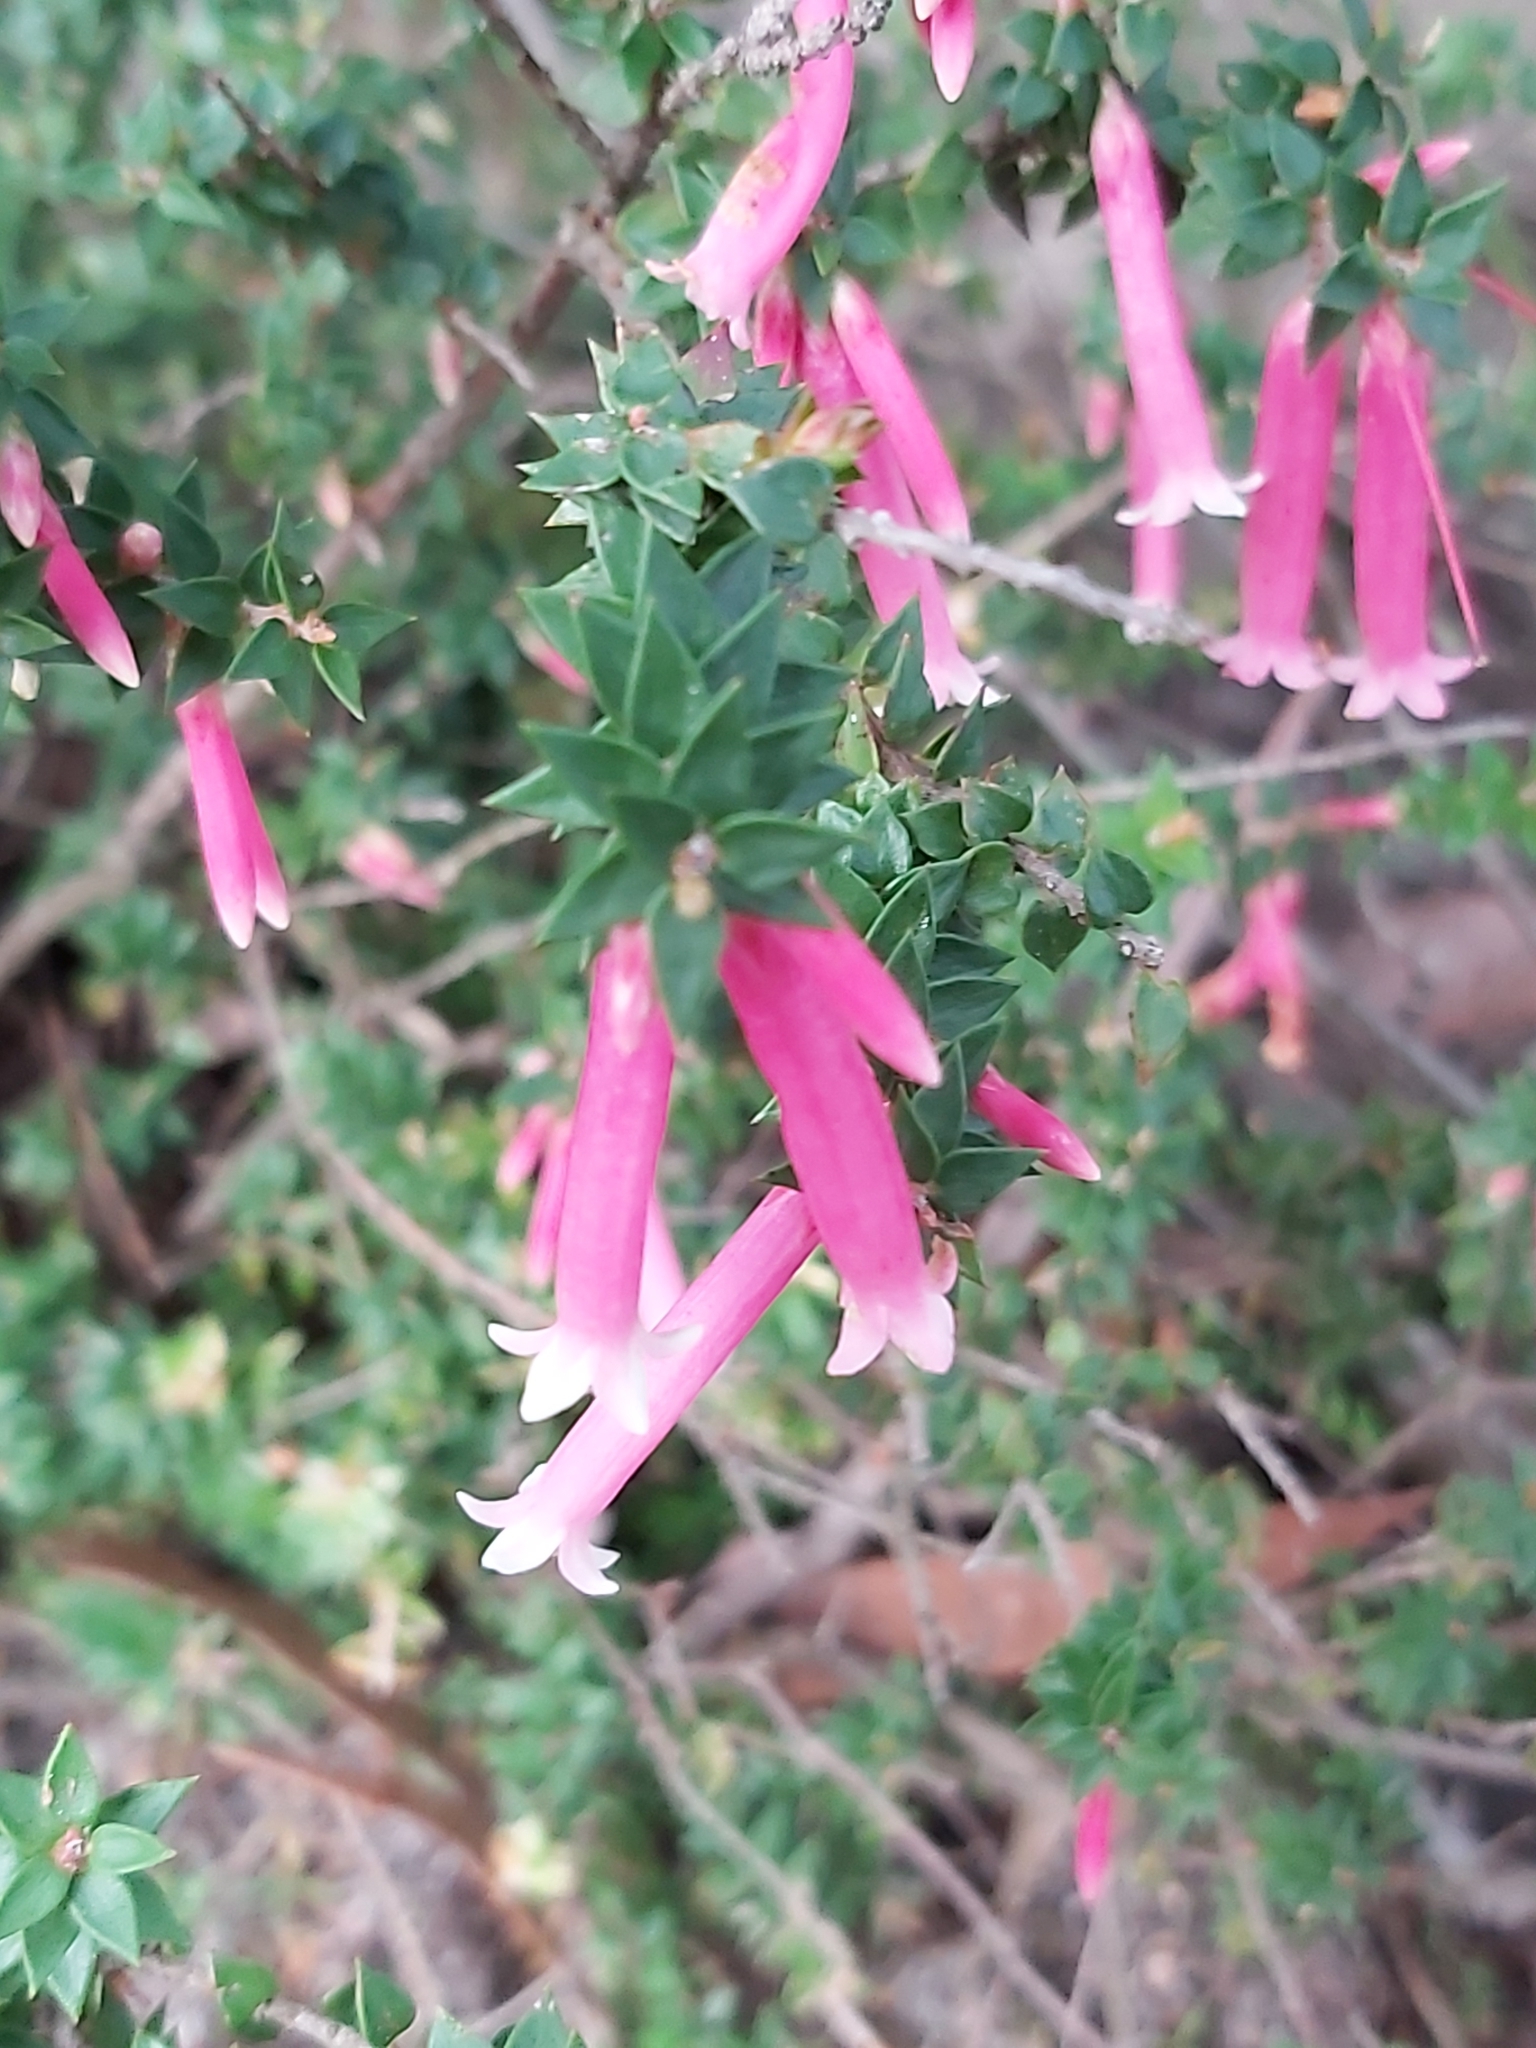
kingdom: Plantae
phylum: Tracheophyta
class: Magnoliopsida
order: Ericales
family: Ericaceae
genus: Epacris
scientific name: Epacris reclinata
